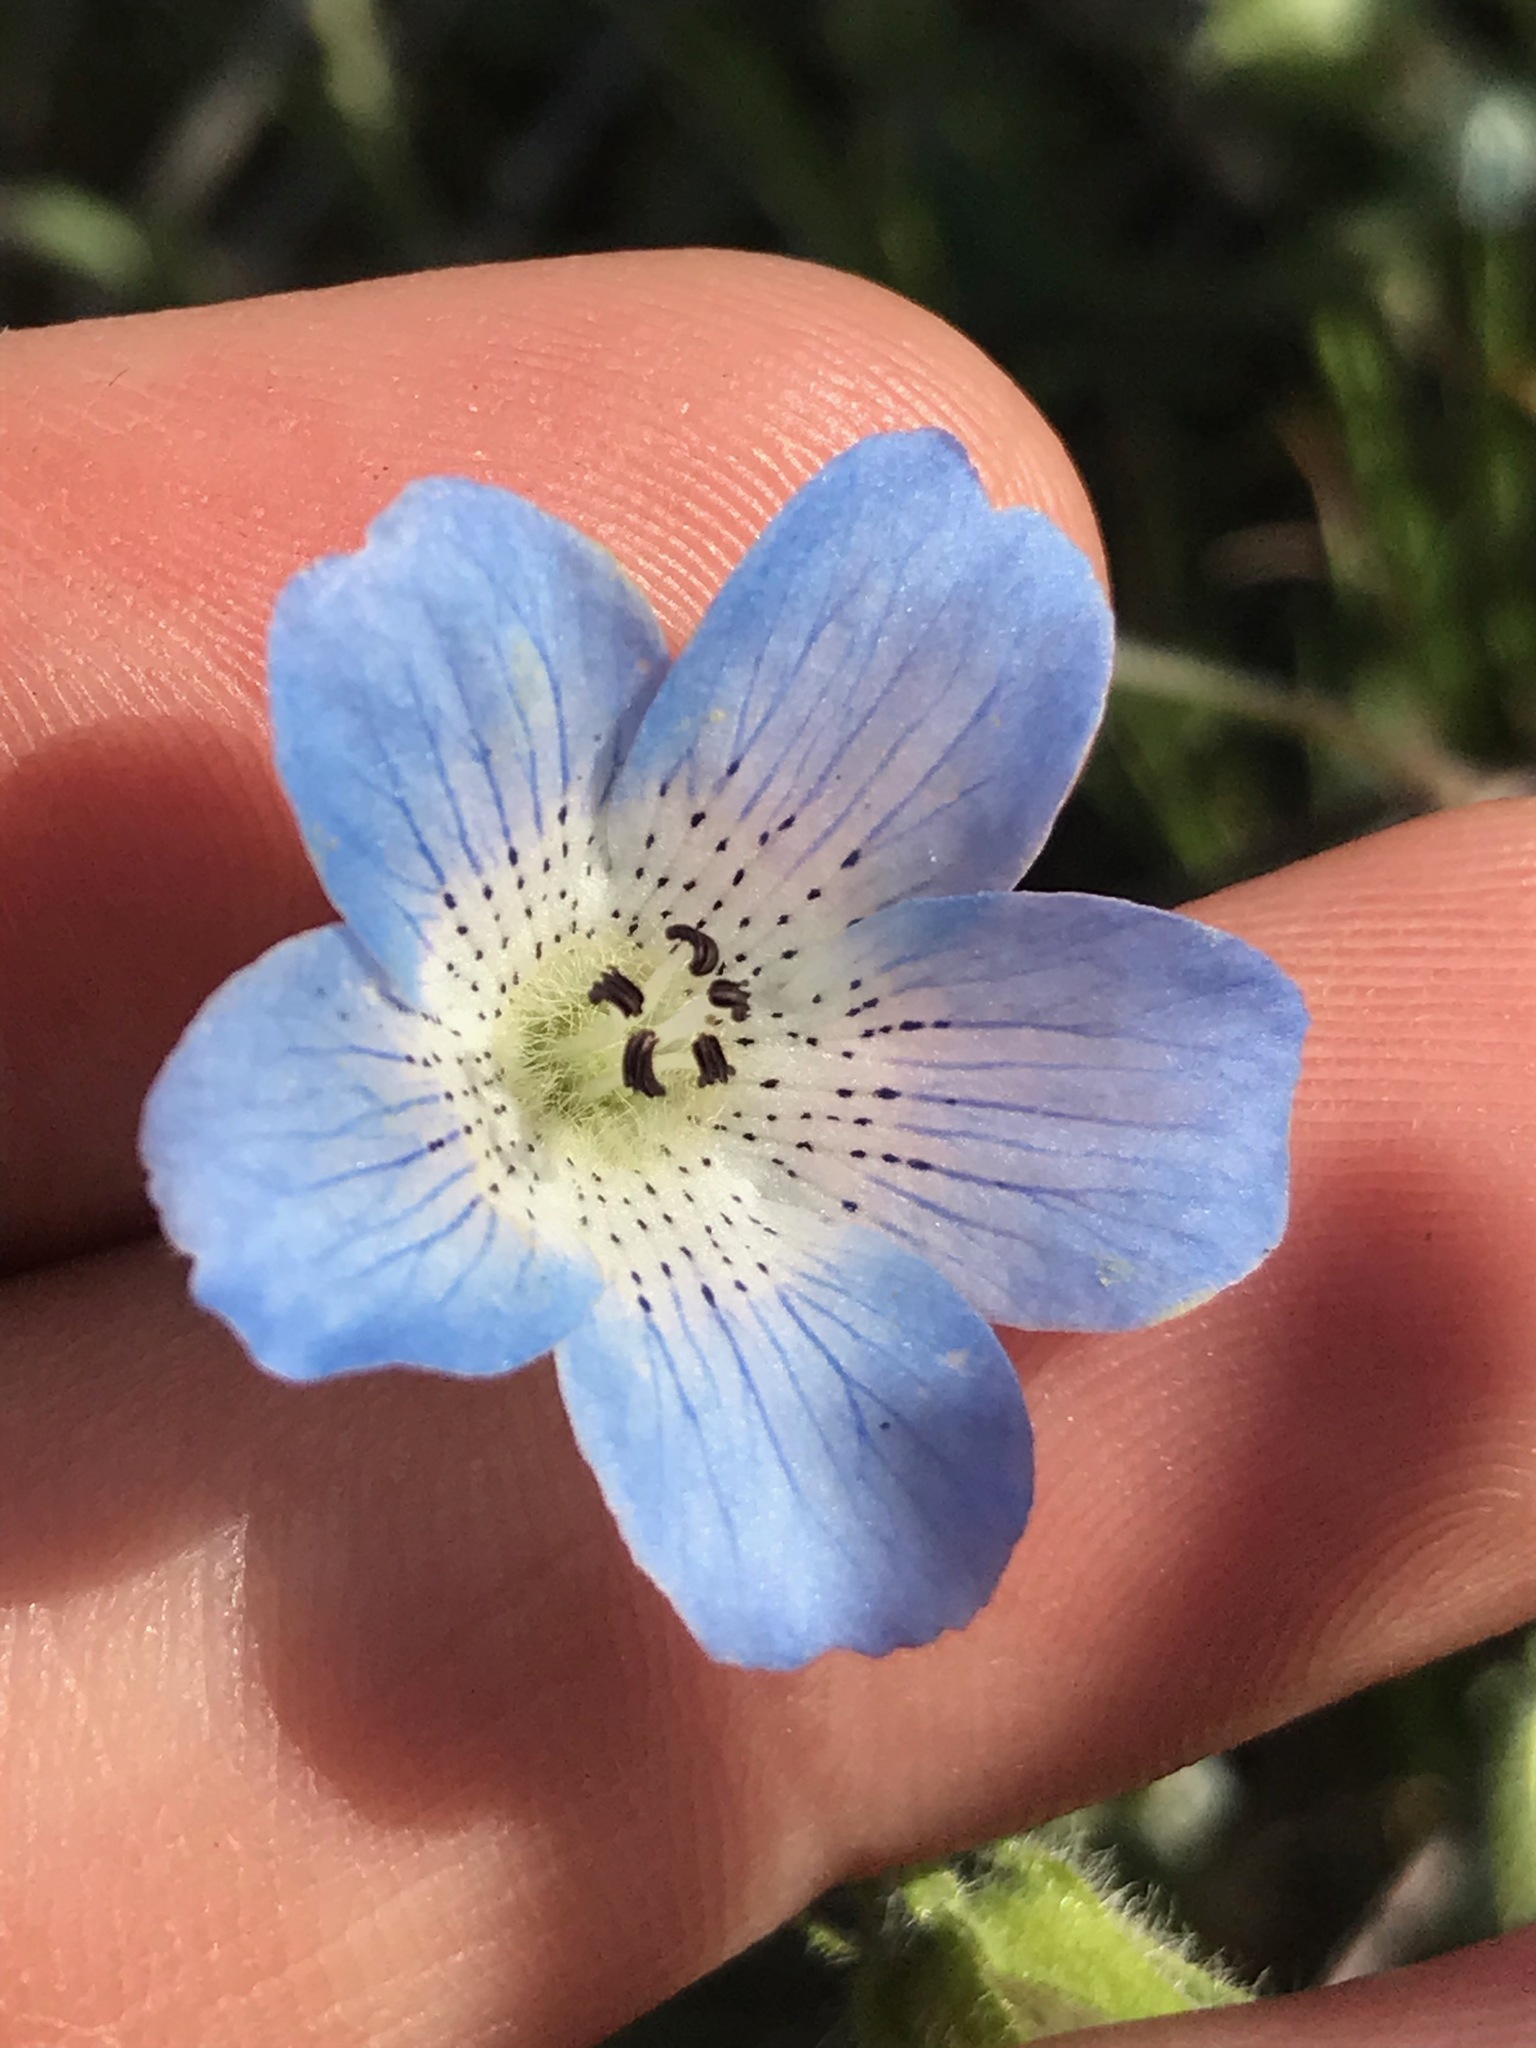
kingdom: Plantae
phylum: Tracheophyta
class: Magnoliopsida
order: Boraginales
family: Hydrophyllaceae
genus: Nemophila
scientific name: Nemophila menziesii
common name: Baby's-blue-eyes
